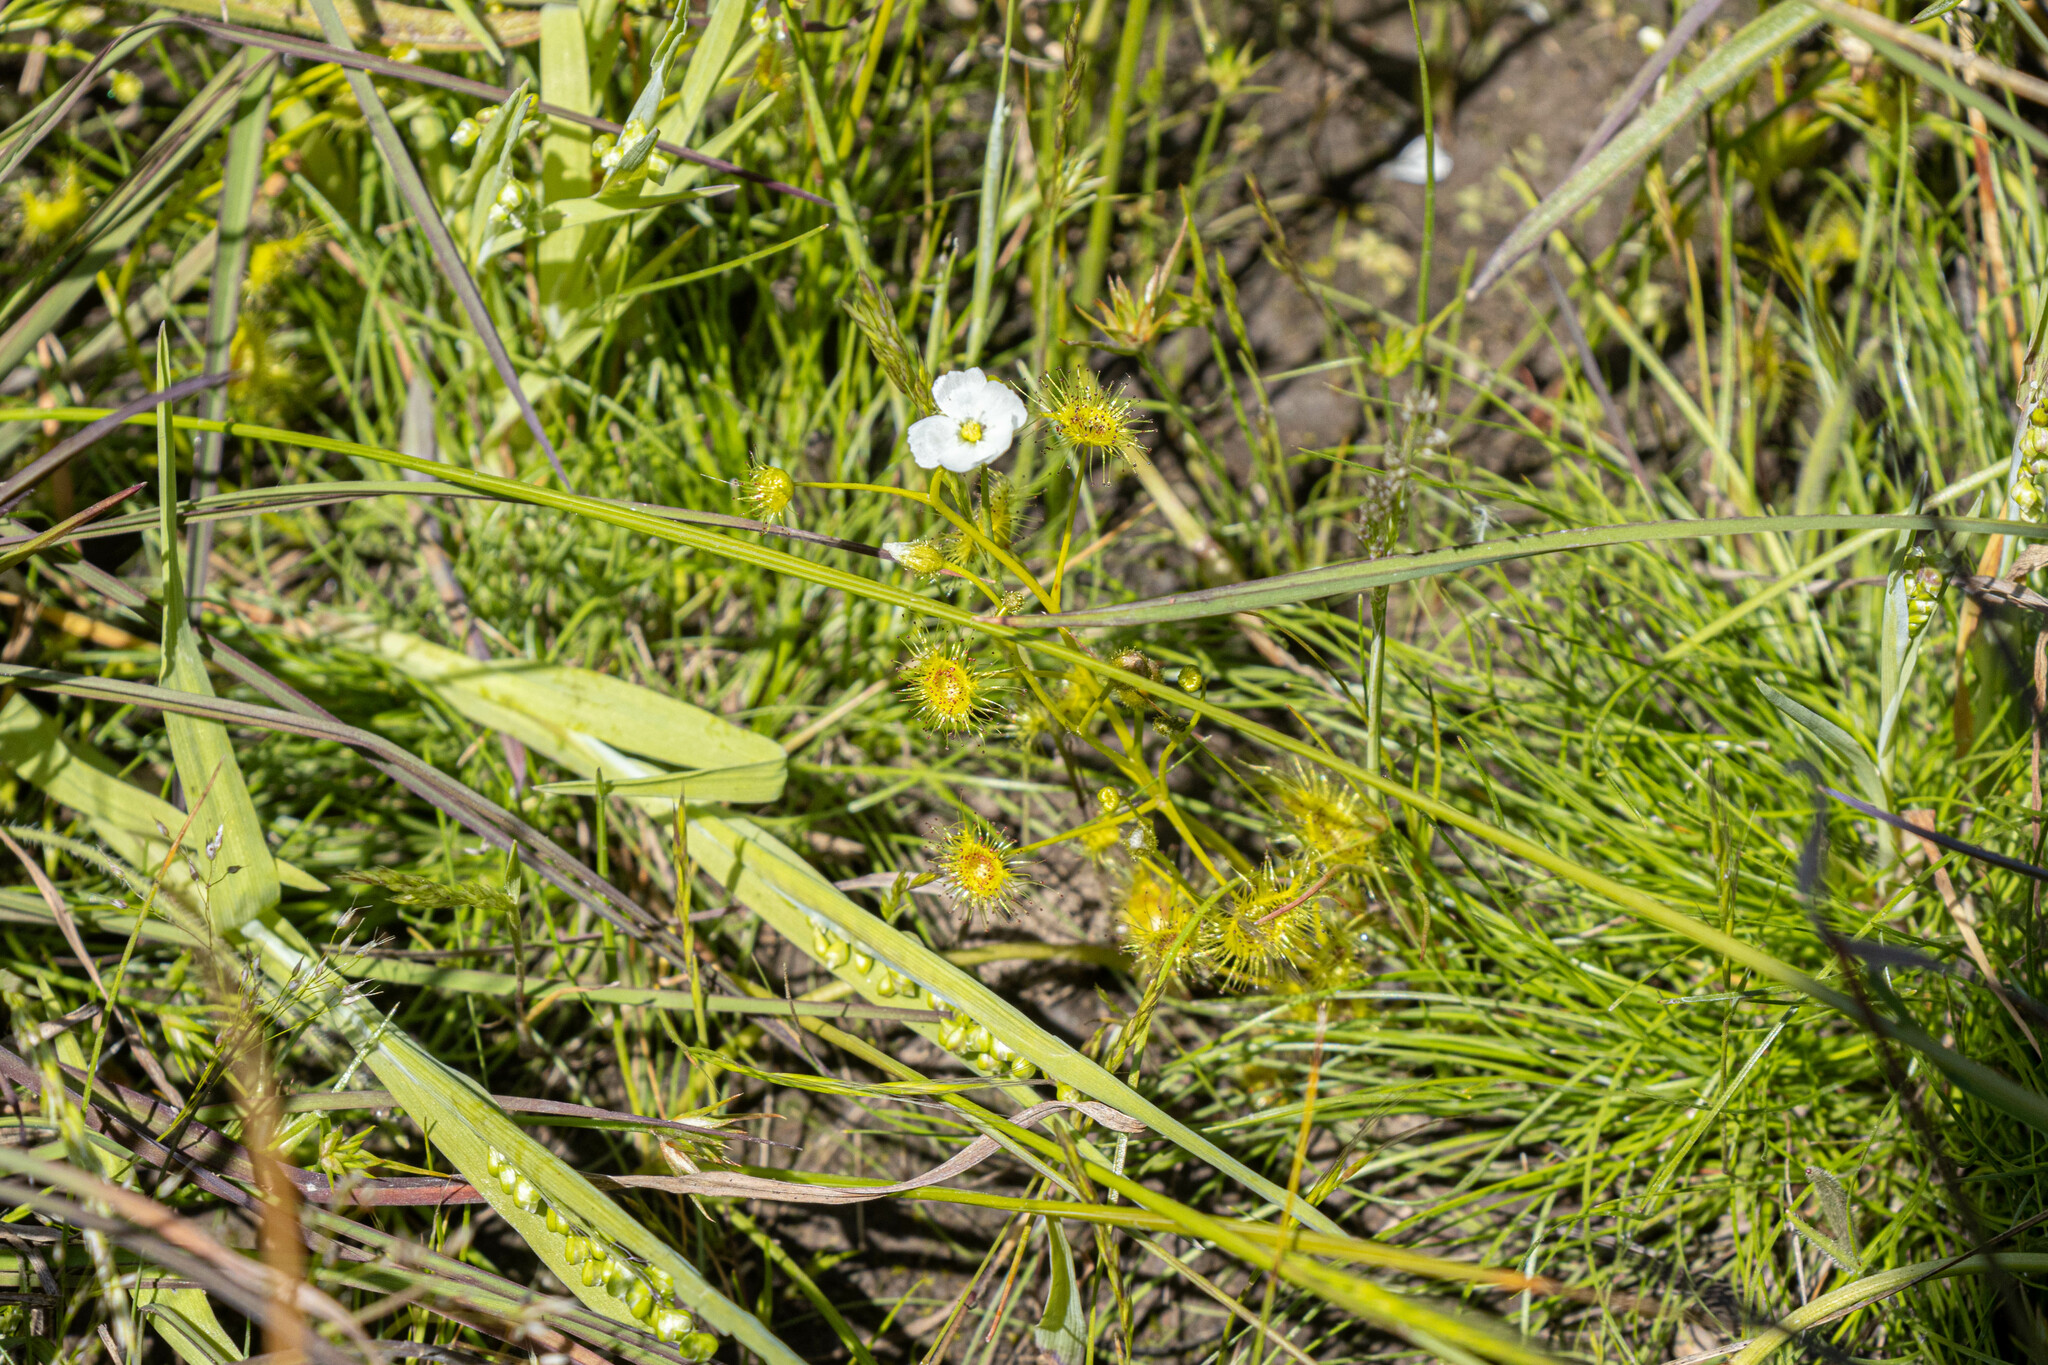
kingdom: Plantae
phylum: Tracheophyta
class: Magnoliopsida
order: Caryophyllales
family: Droseraceae
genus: Drosera
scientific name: Drosera hookeri
